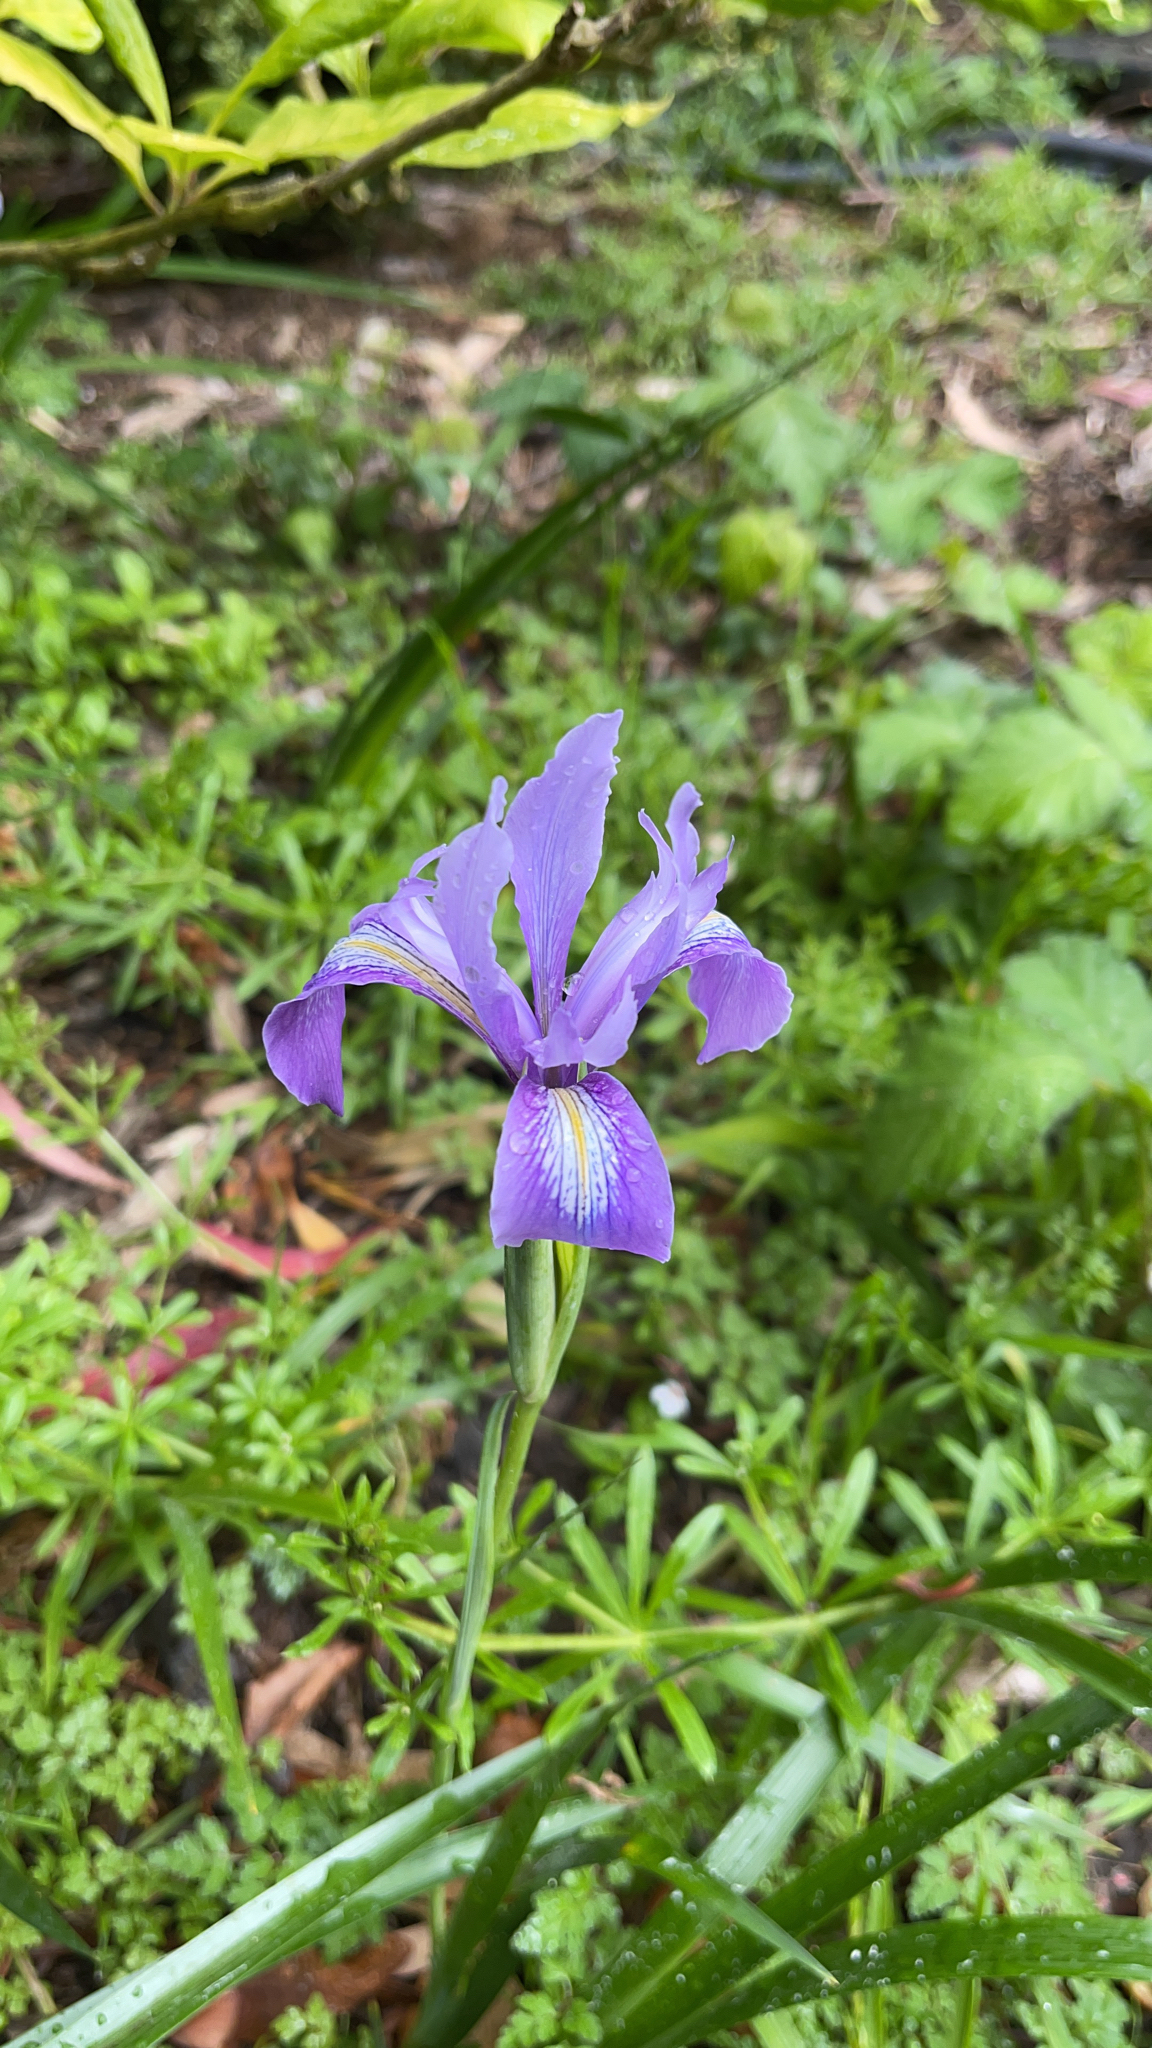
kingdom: Plantae
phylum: Tracheophyta
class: Liliopsida
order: Asparagales
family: Iridaceae
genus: Iris
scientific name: Iris douglasiana
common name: Marin iris
